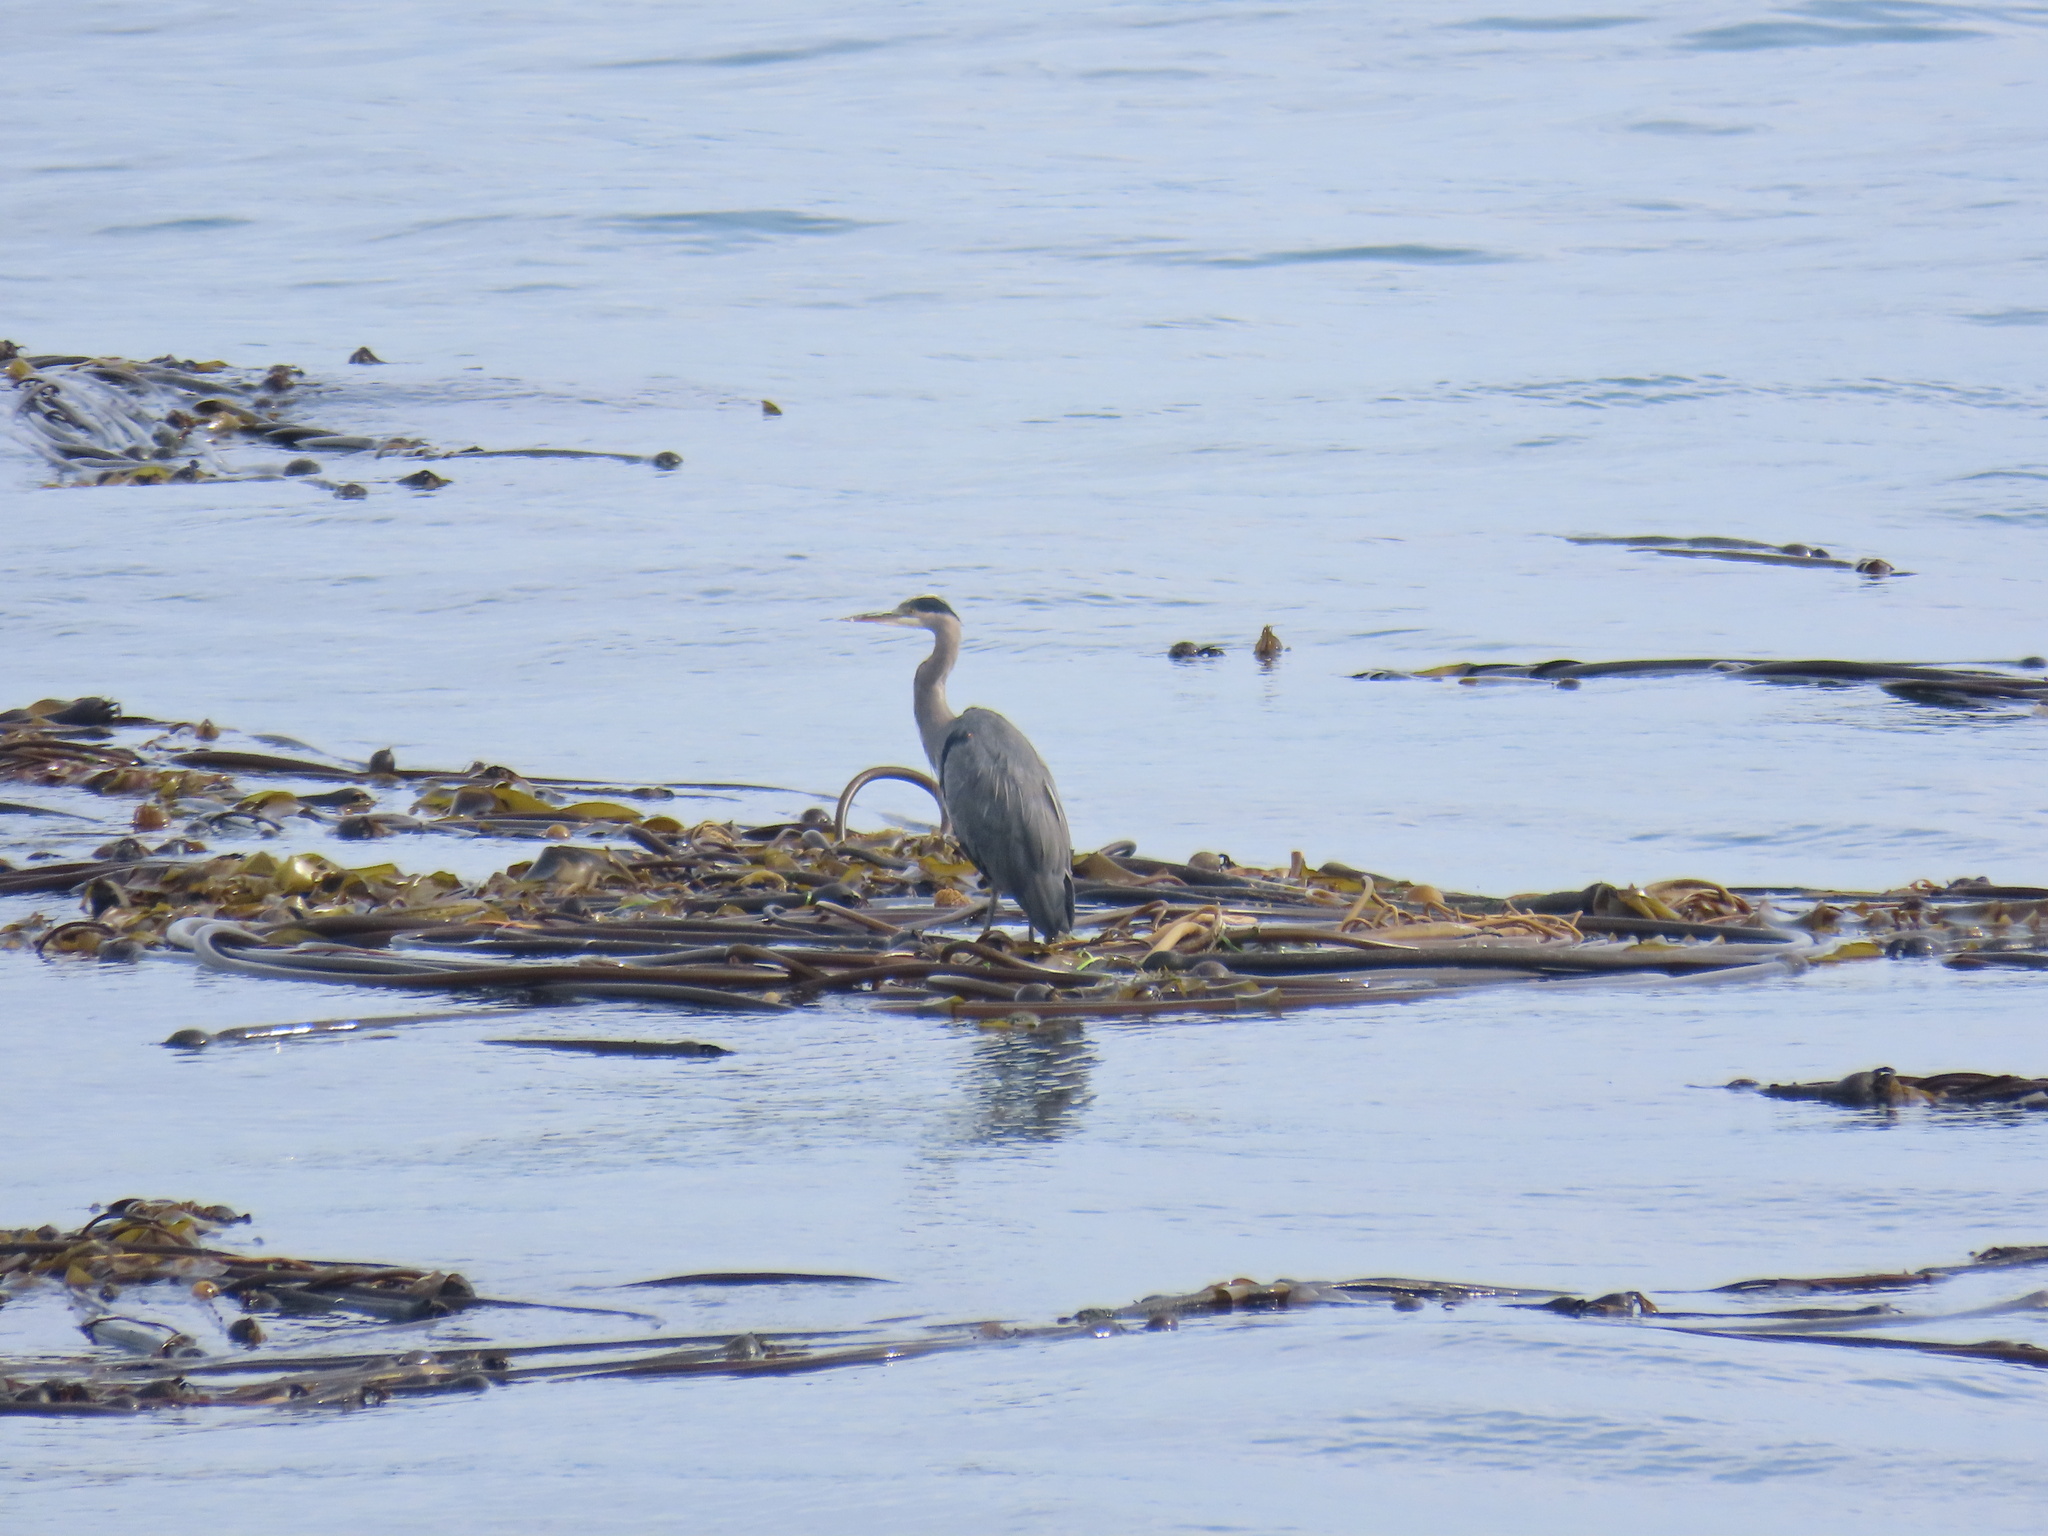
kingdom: Animalia
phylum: Chordata
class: Aves
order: Pelecaniformes
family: Ardeidae
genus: Ardea
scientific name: Ardea herodias
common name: Great blue heron
